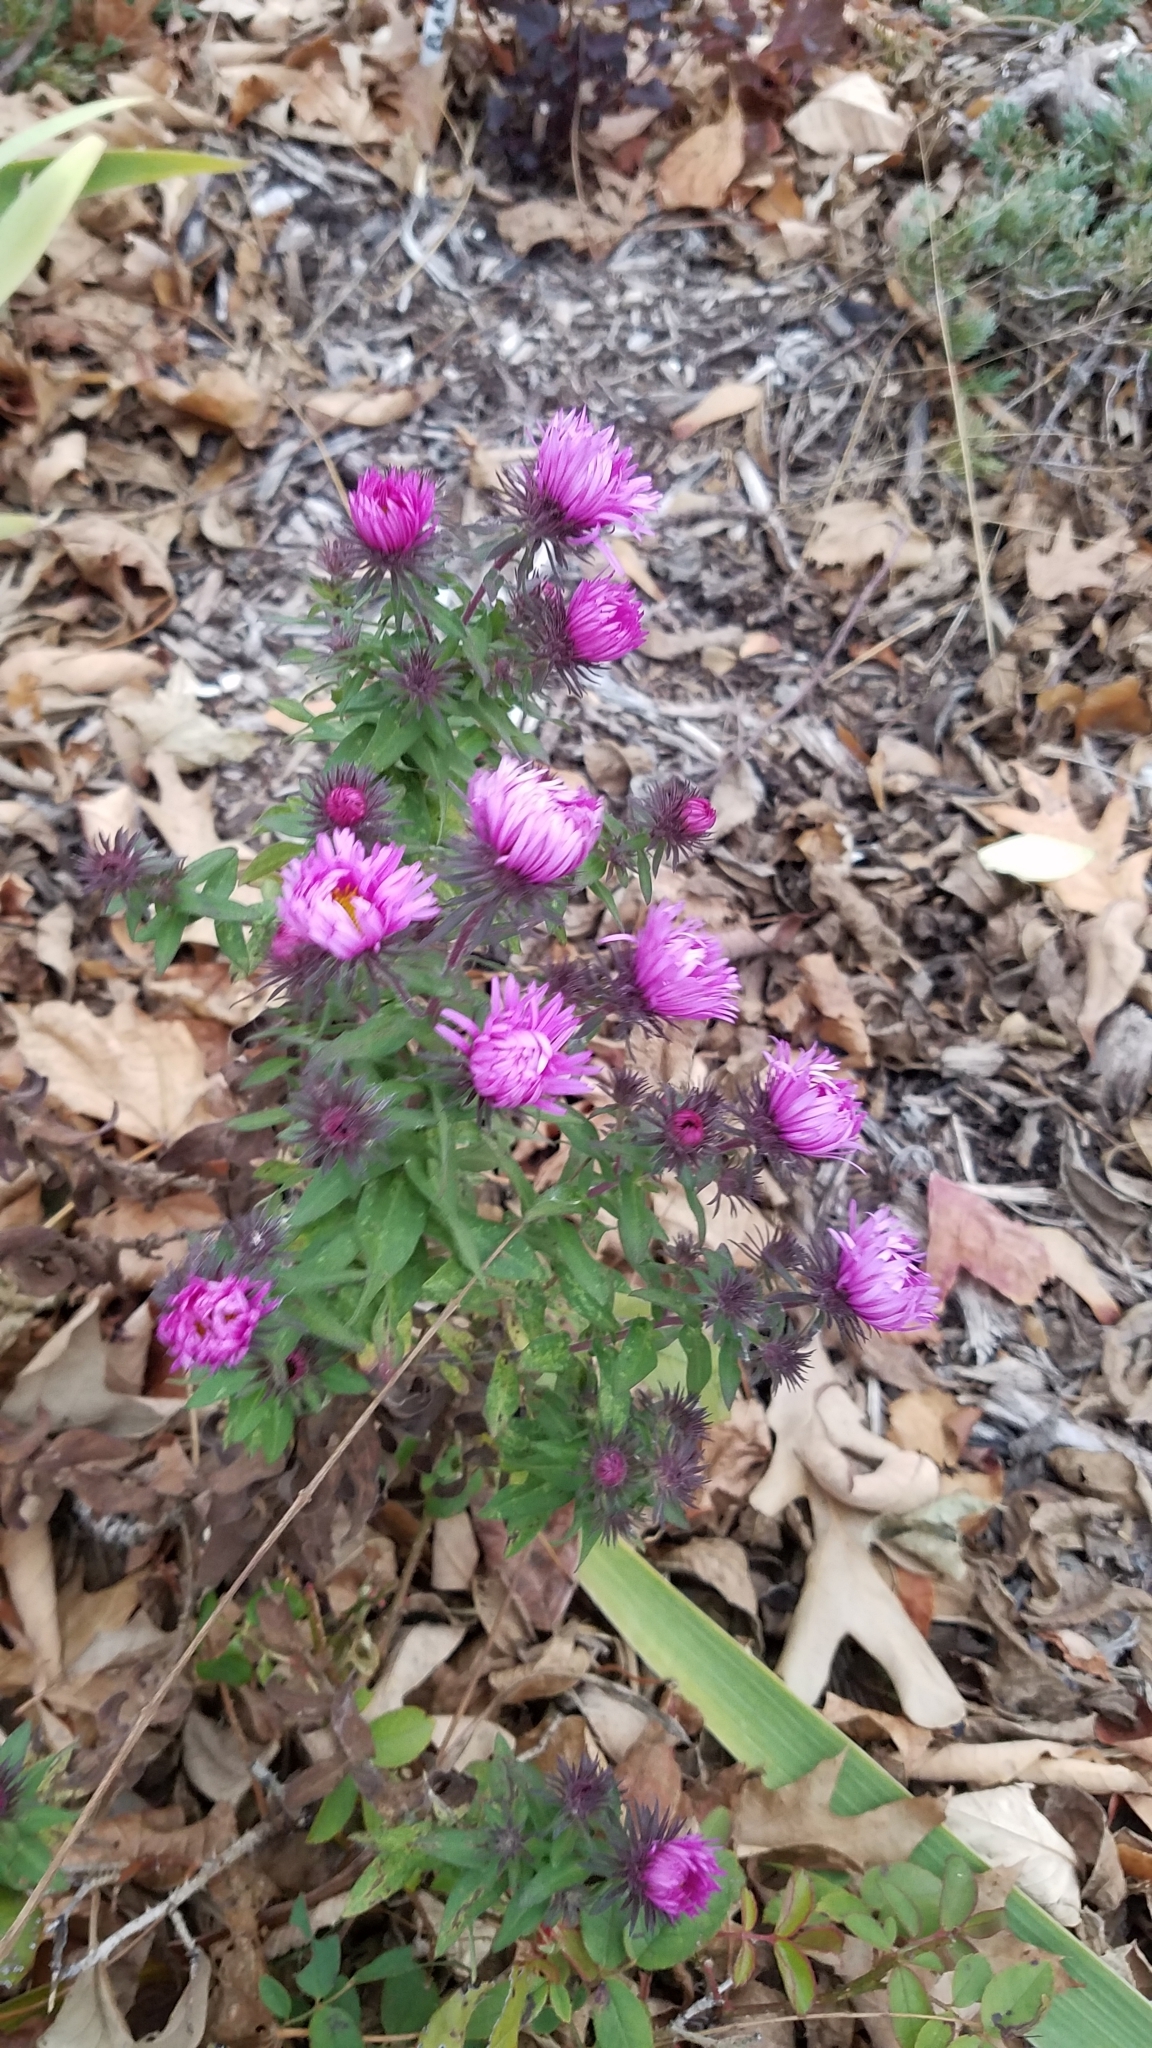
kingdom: Plantae
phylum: Tracheophyta
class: Magnoliopsida
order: Asterales
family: Asteraceae
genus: Symphyotrichum
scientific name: Symphyotrichum novae-angliae
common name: Michaelmas daisy
